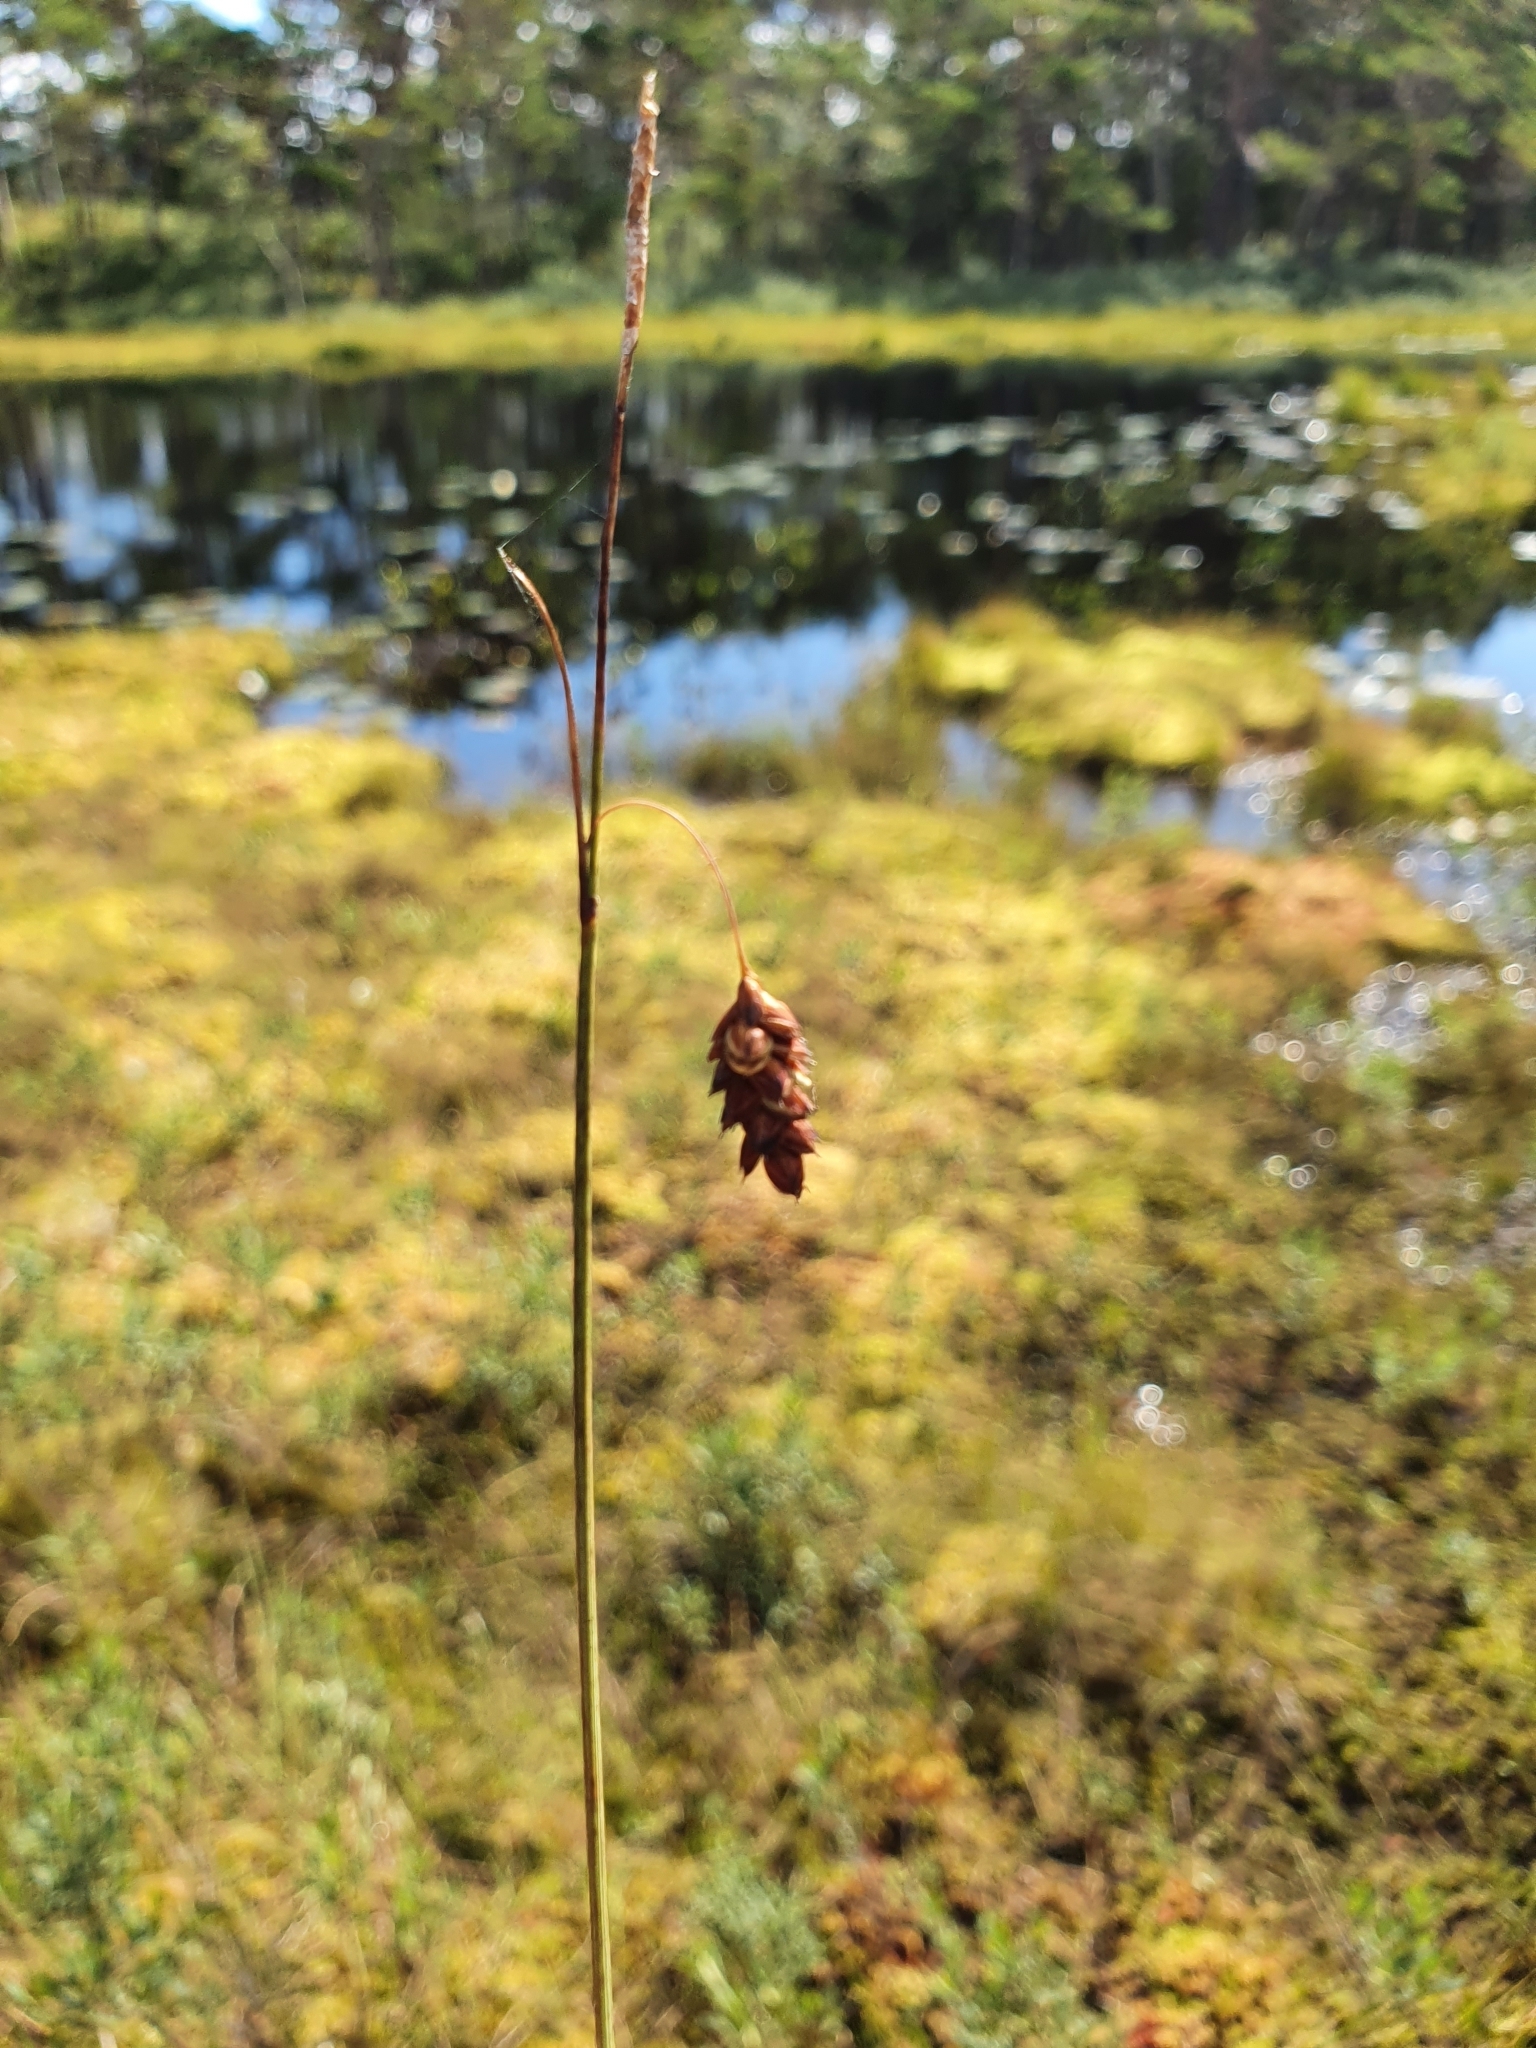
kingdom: Plantae
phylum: Tracheophyta
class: Liliopsida
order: Poales
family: Cyperaceae
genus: Carex
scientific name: Carex limosa
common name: Bog sedge
